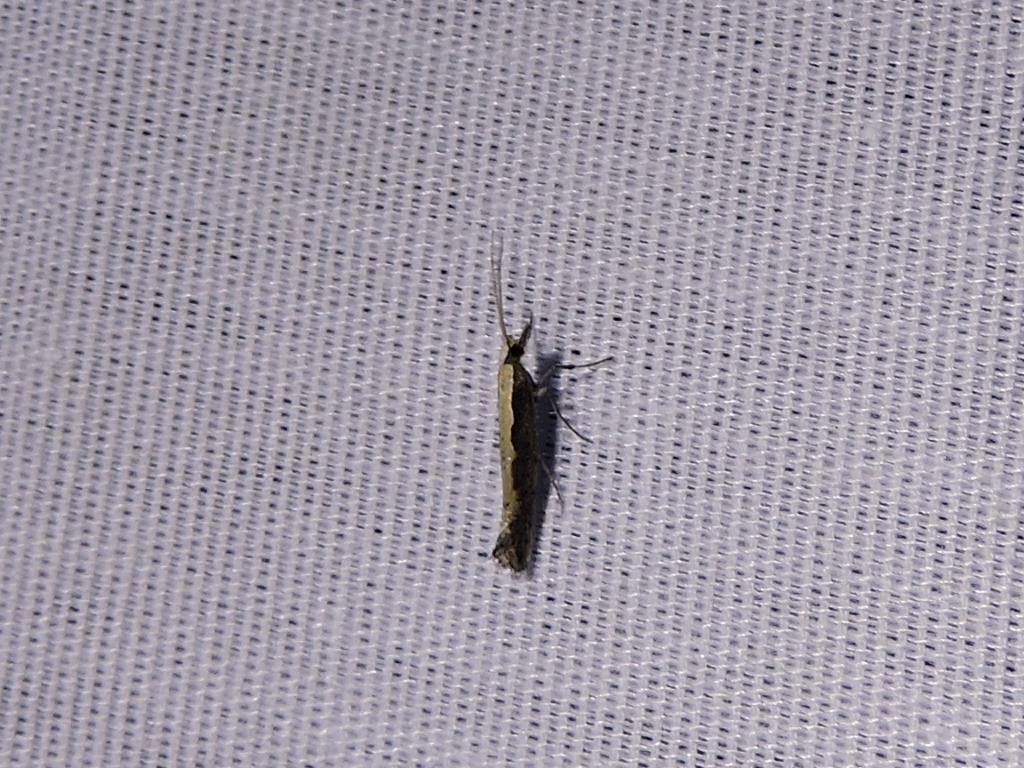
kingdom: Animalia
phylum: Arthropoda
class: Insecta
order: Lepidoptera
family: Plutellidae
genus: Plutella
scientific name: Plutella xylostella
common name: Diamond-back moth
